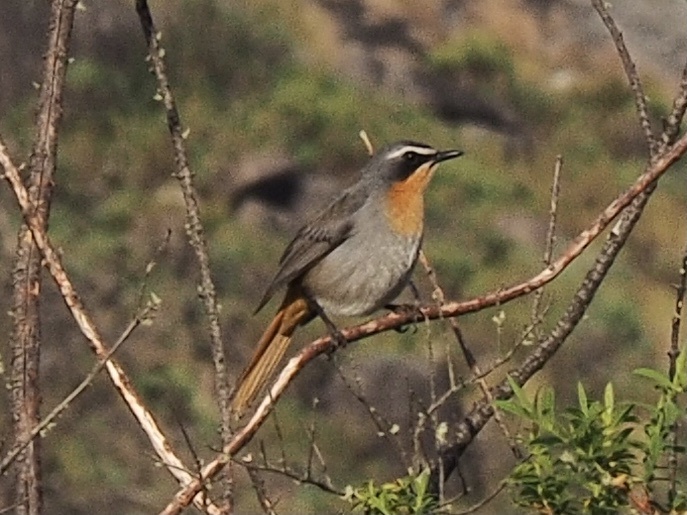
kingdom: Animalia
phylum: Chordata
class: Aves
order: Passeriformes
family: Muscicapidae
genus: Cossypha
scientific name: Cossypha caffra
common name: Cape robin-chat
